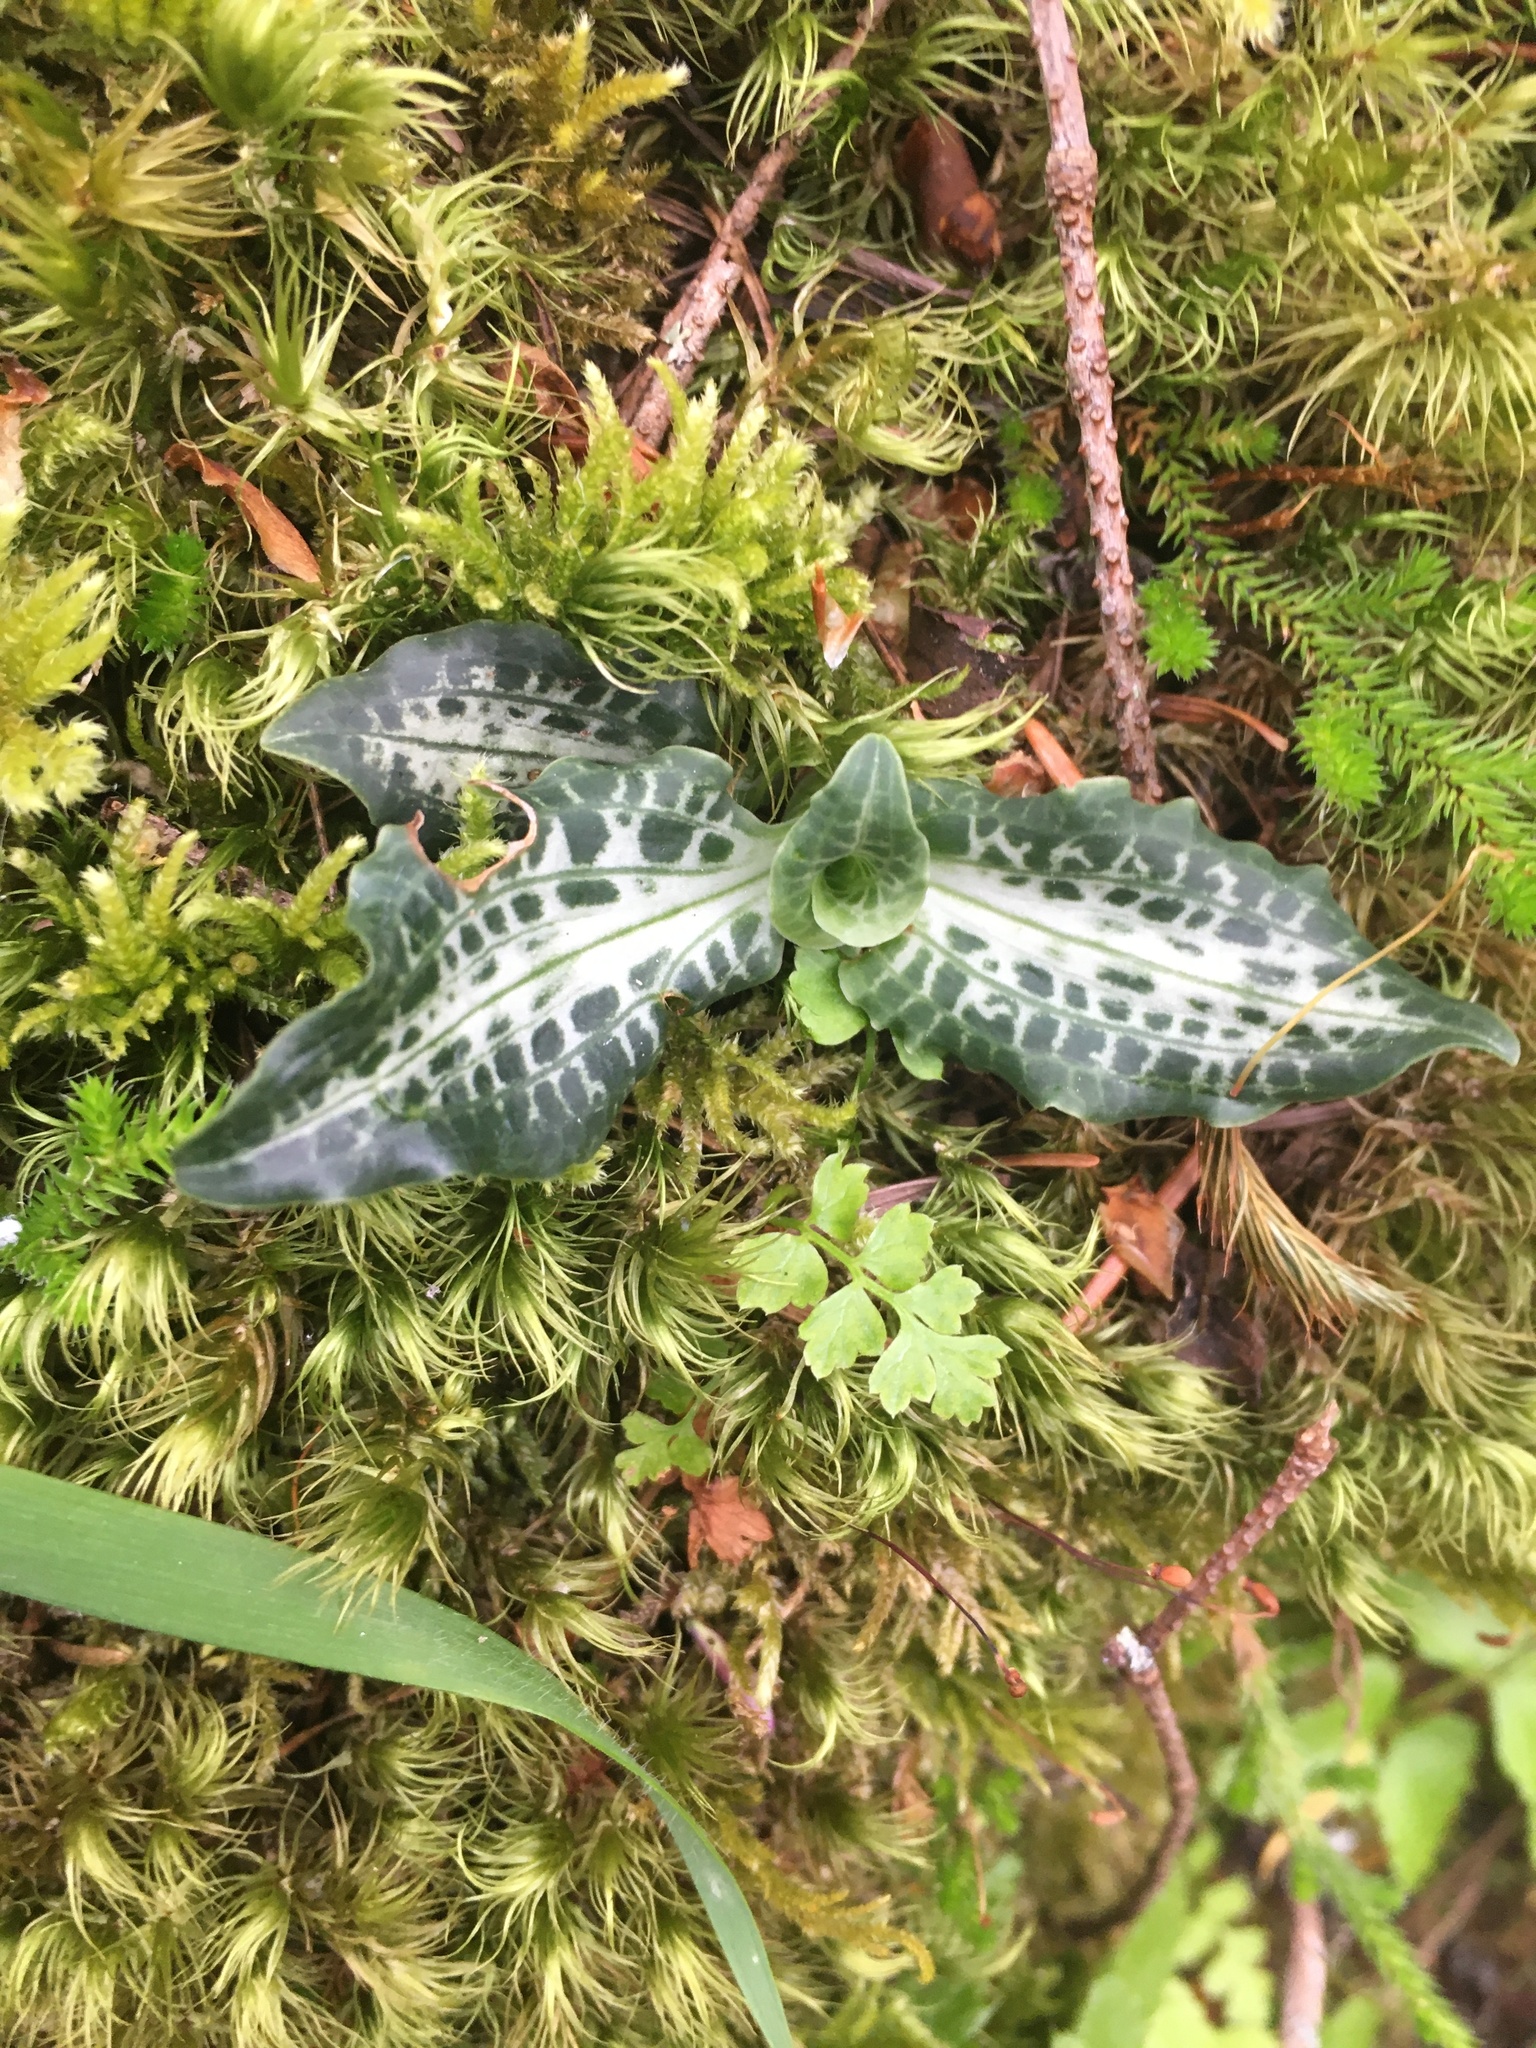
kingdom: Plantae
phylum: Tracheophyta
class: Liliopsida
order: Asparagales
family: Orchidaceae
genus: Goodyera
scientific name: Goodyera oblongifolia
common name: Giant rattlesnake-plantain
